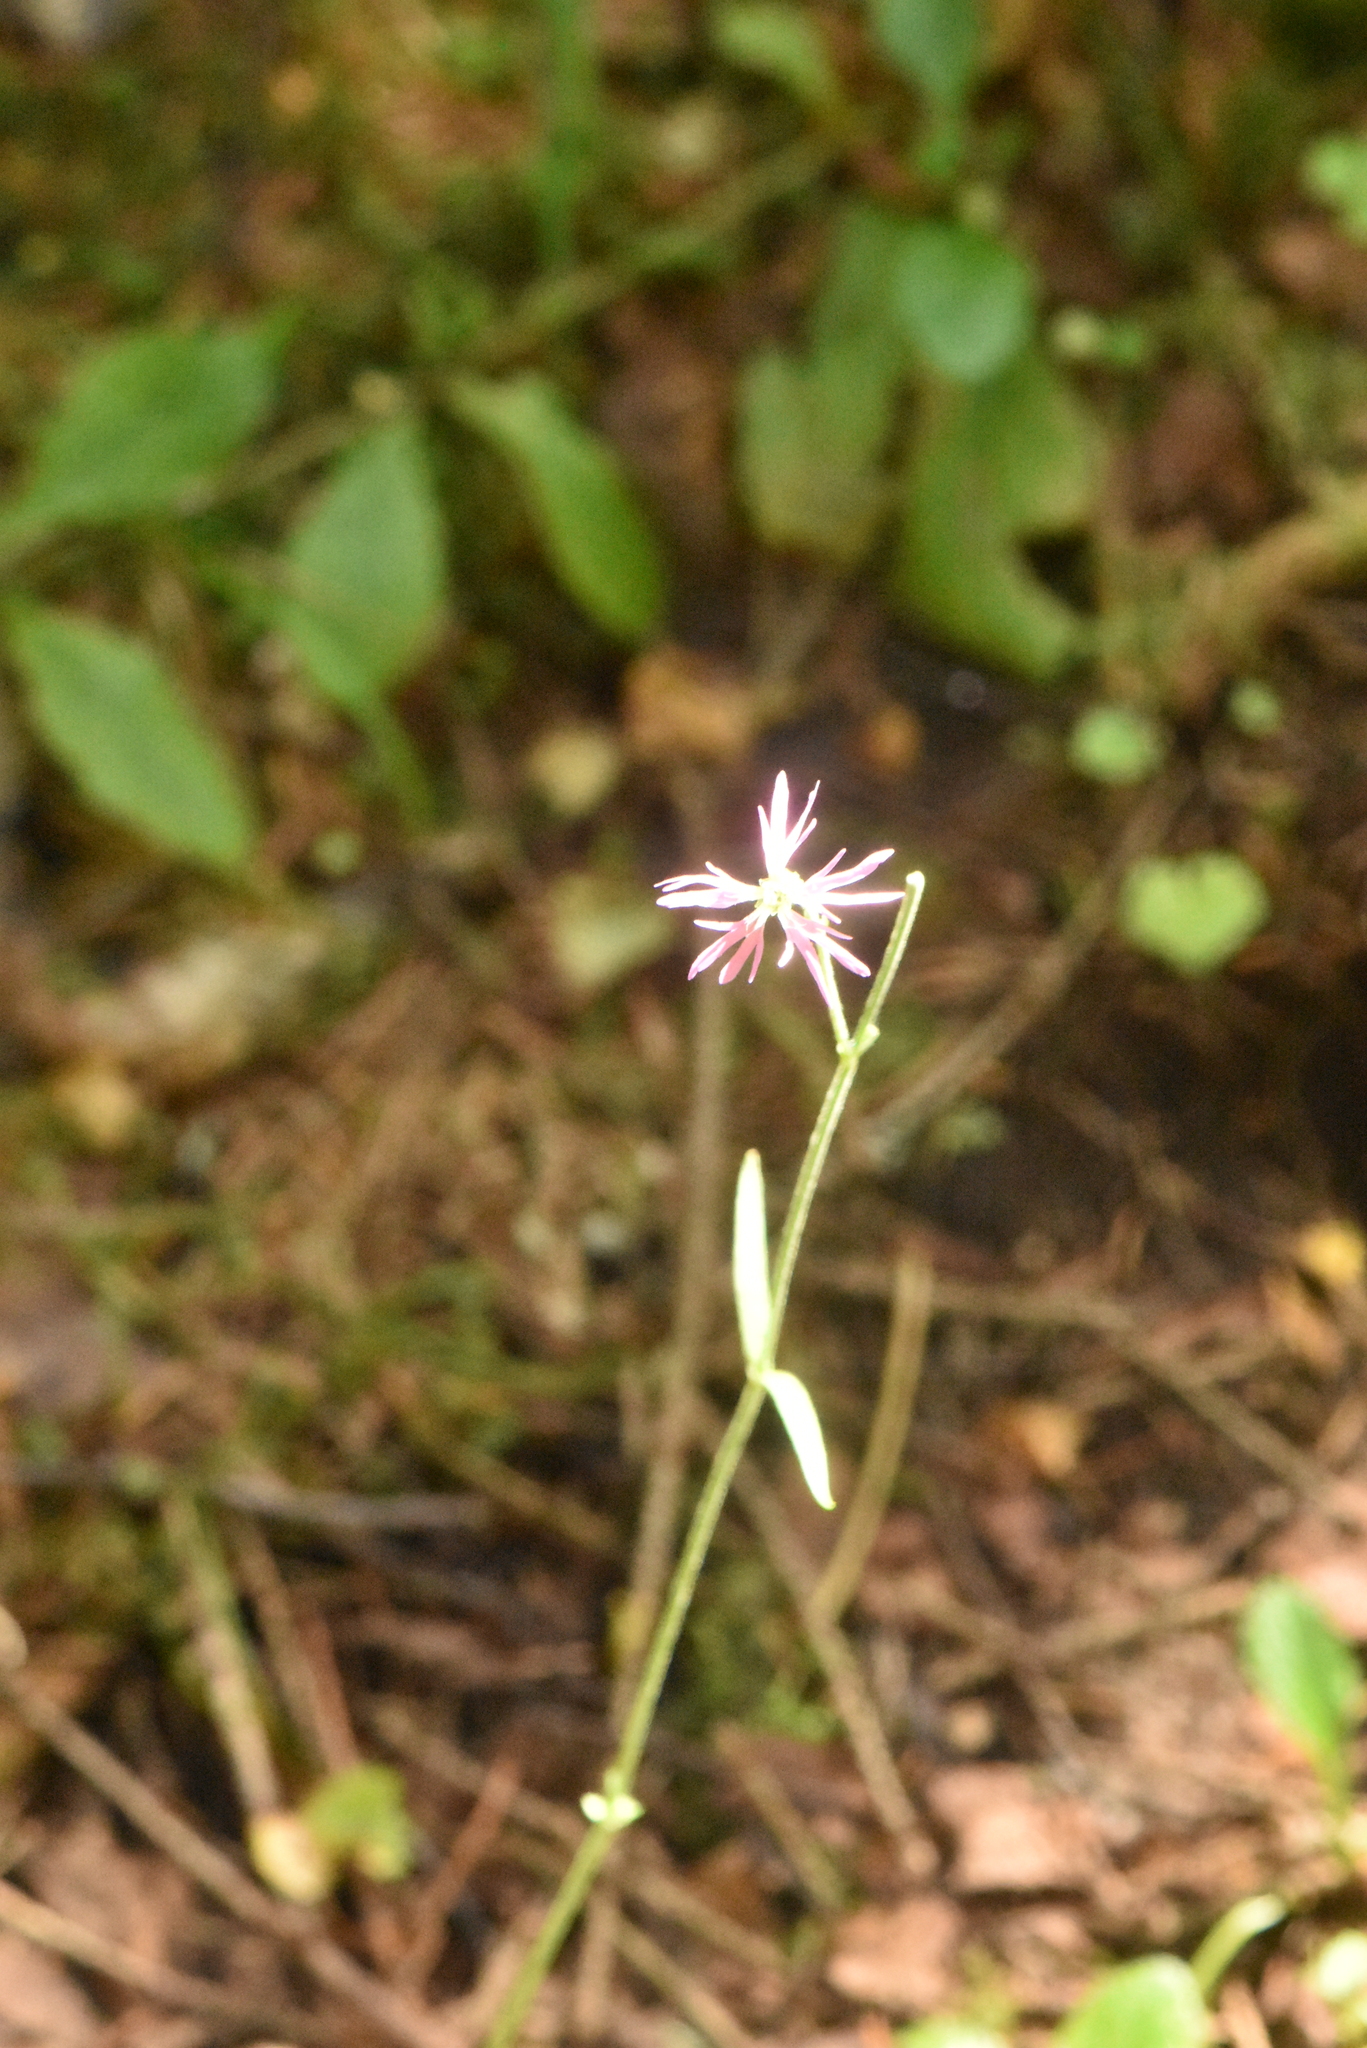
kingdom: Plantae
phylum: Tracheophyta
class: Magnoliopsida
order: Caryophyllales
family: Caryophyllaceae
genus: Silene
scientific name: Silene flos-cuculi
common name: Ragged-robin
